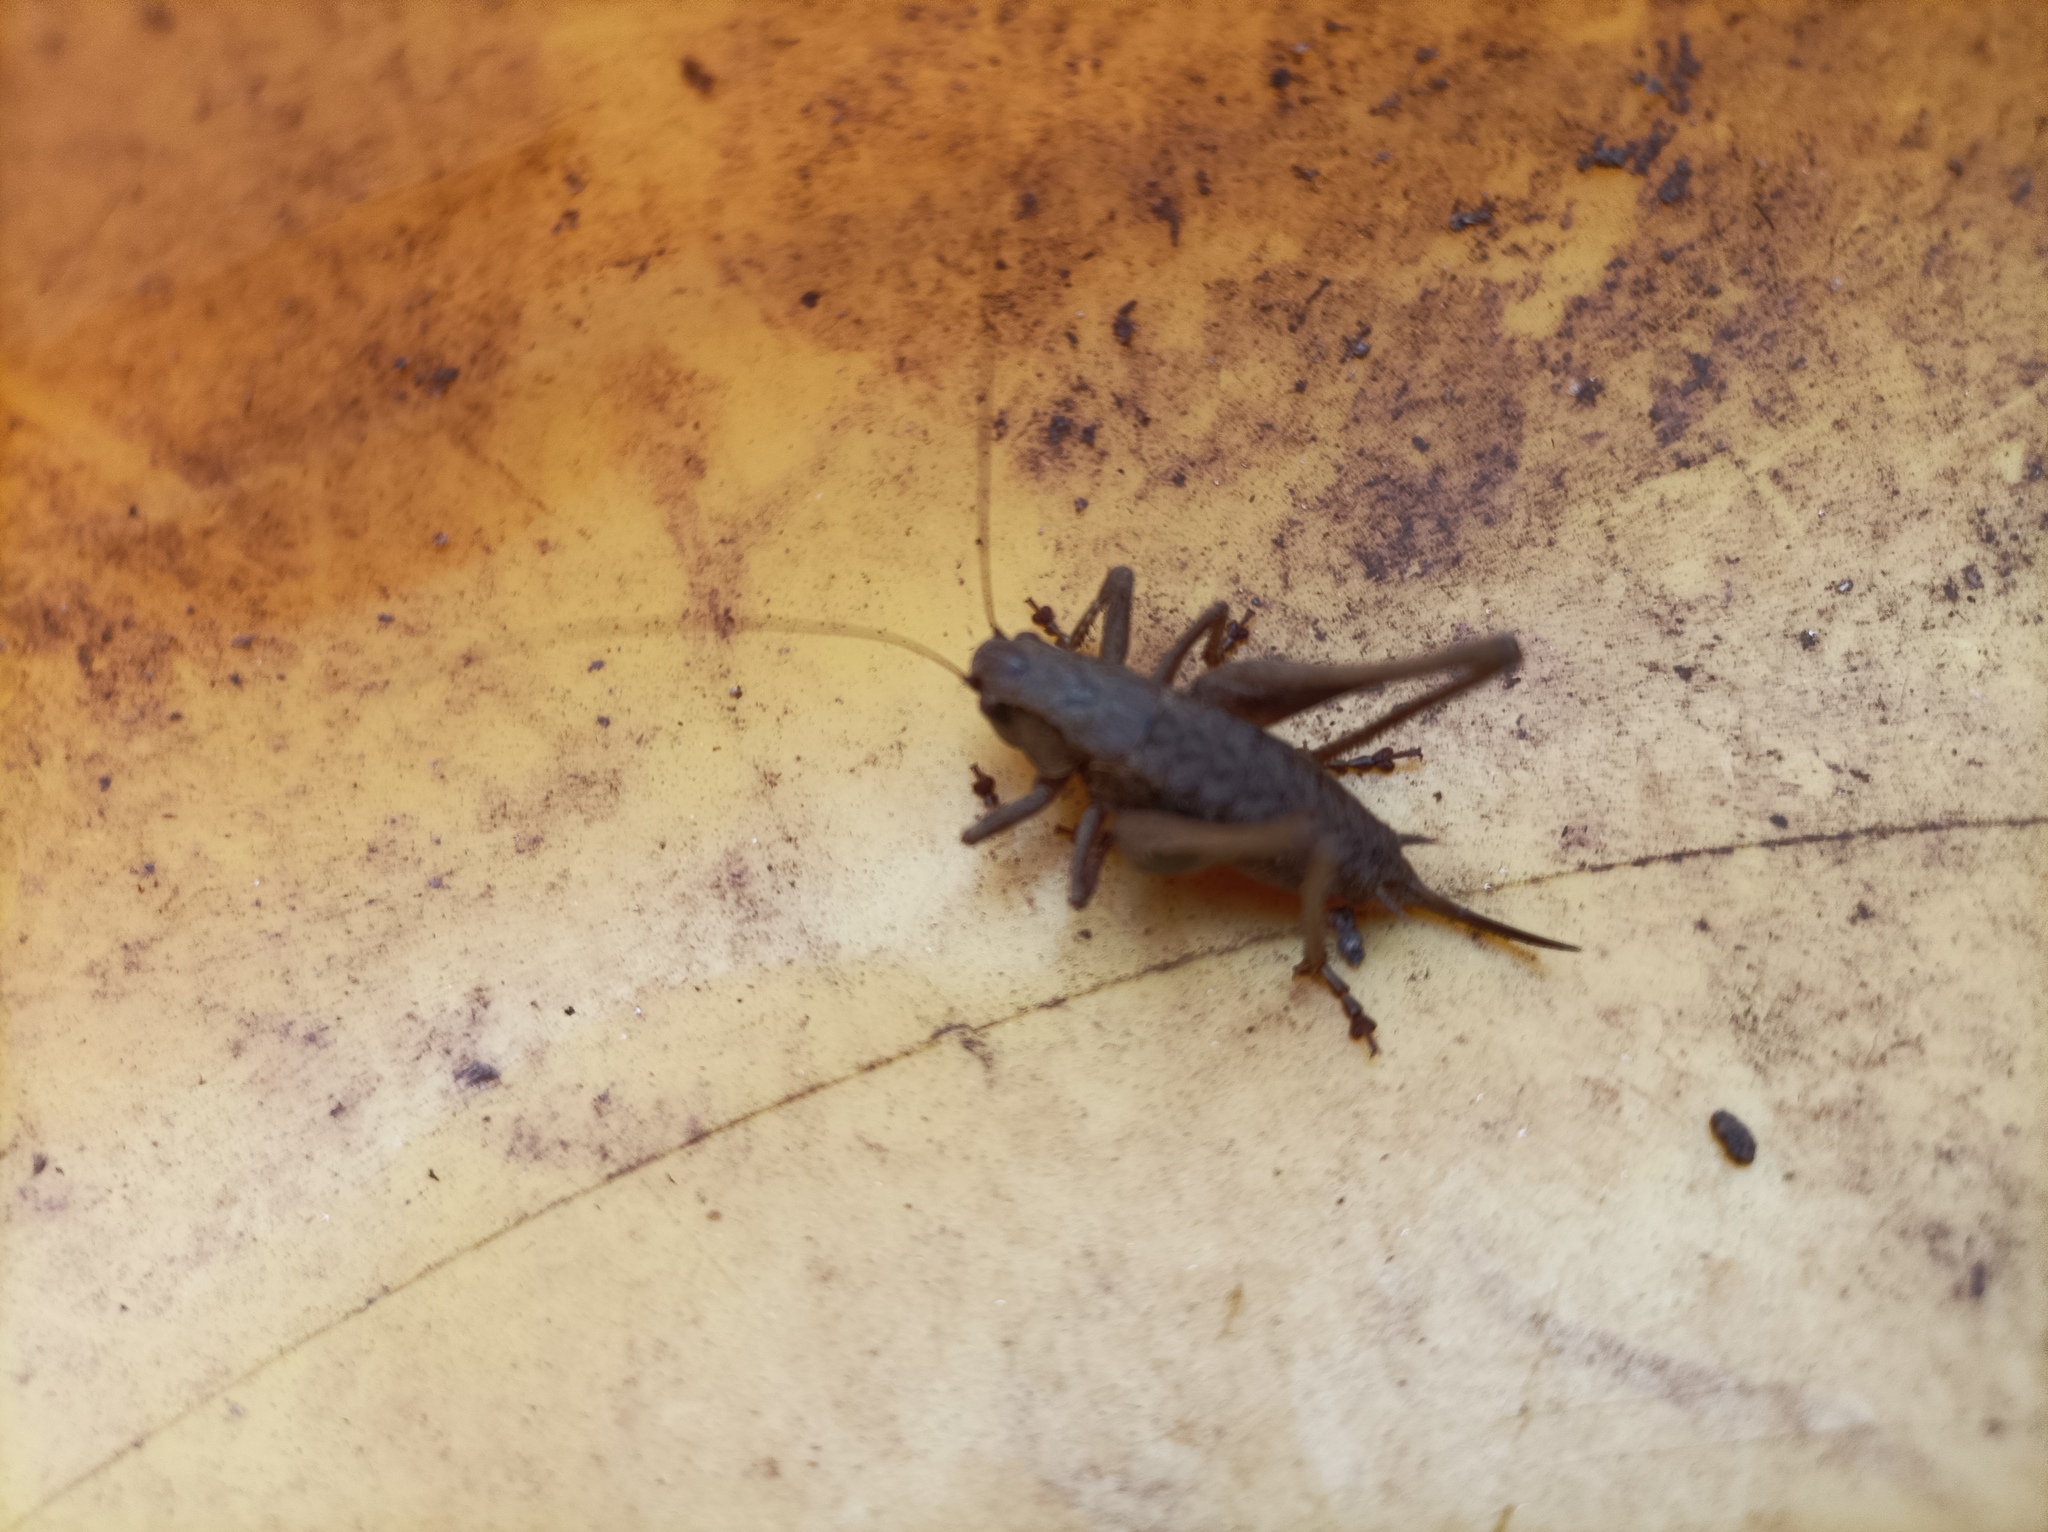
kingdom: Animalia
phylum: Arthropoda
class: Insecta
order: Orthoptera
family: Tettigoniidae
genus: Pholidoptera
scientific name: Pholidoptera griseoaptera
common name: Dark bush-cricket
